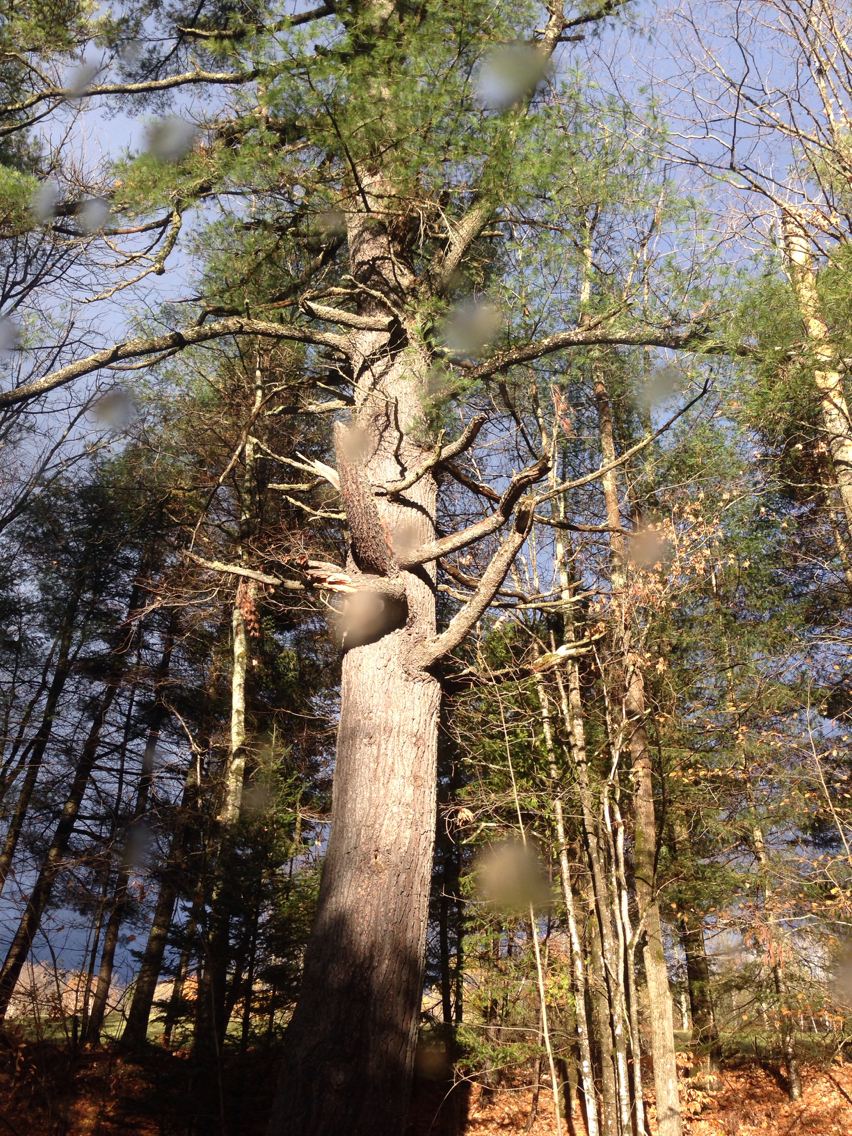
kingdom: Plantae
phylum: Tracheophyta
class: Pinopsida
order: Pinales
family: Pinaceae
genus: Pinus
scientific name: Pinus strobus
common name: Weymouth pine
